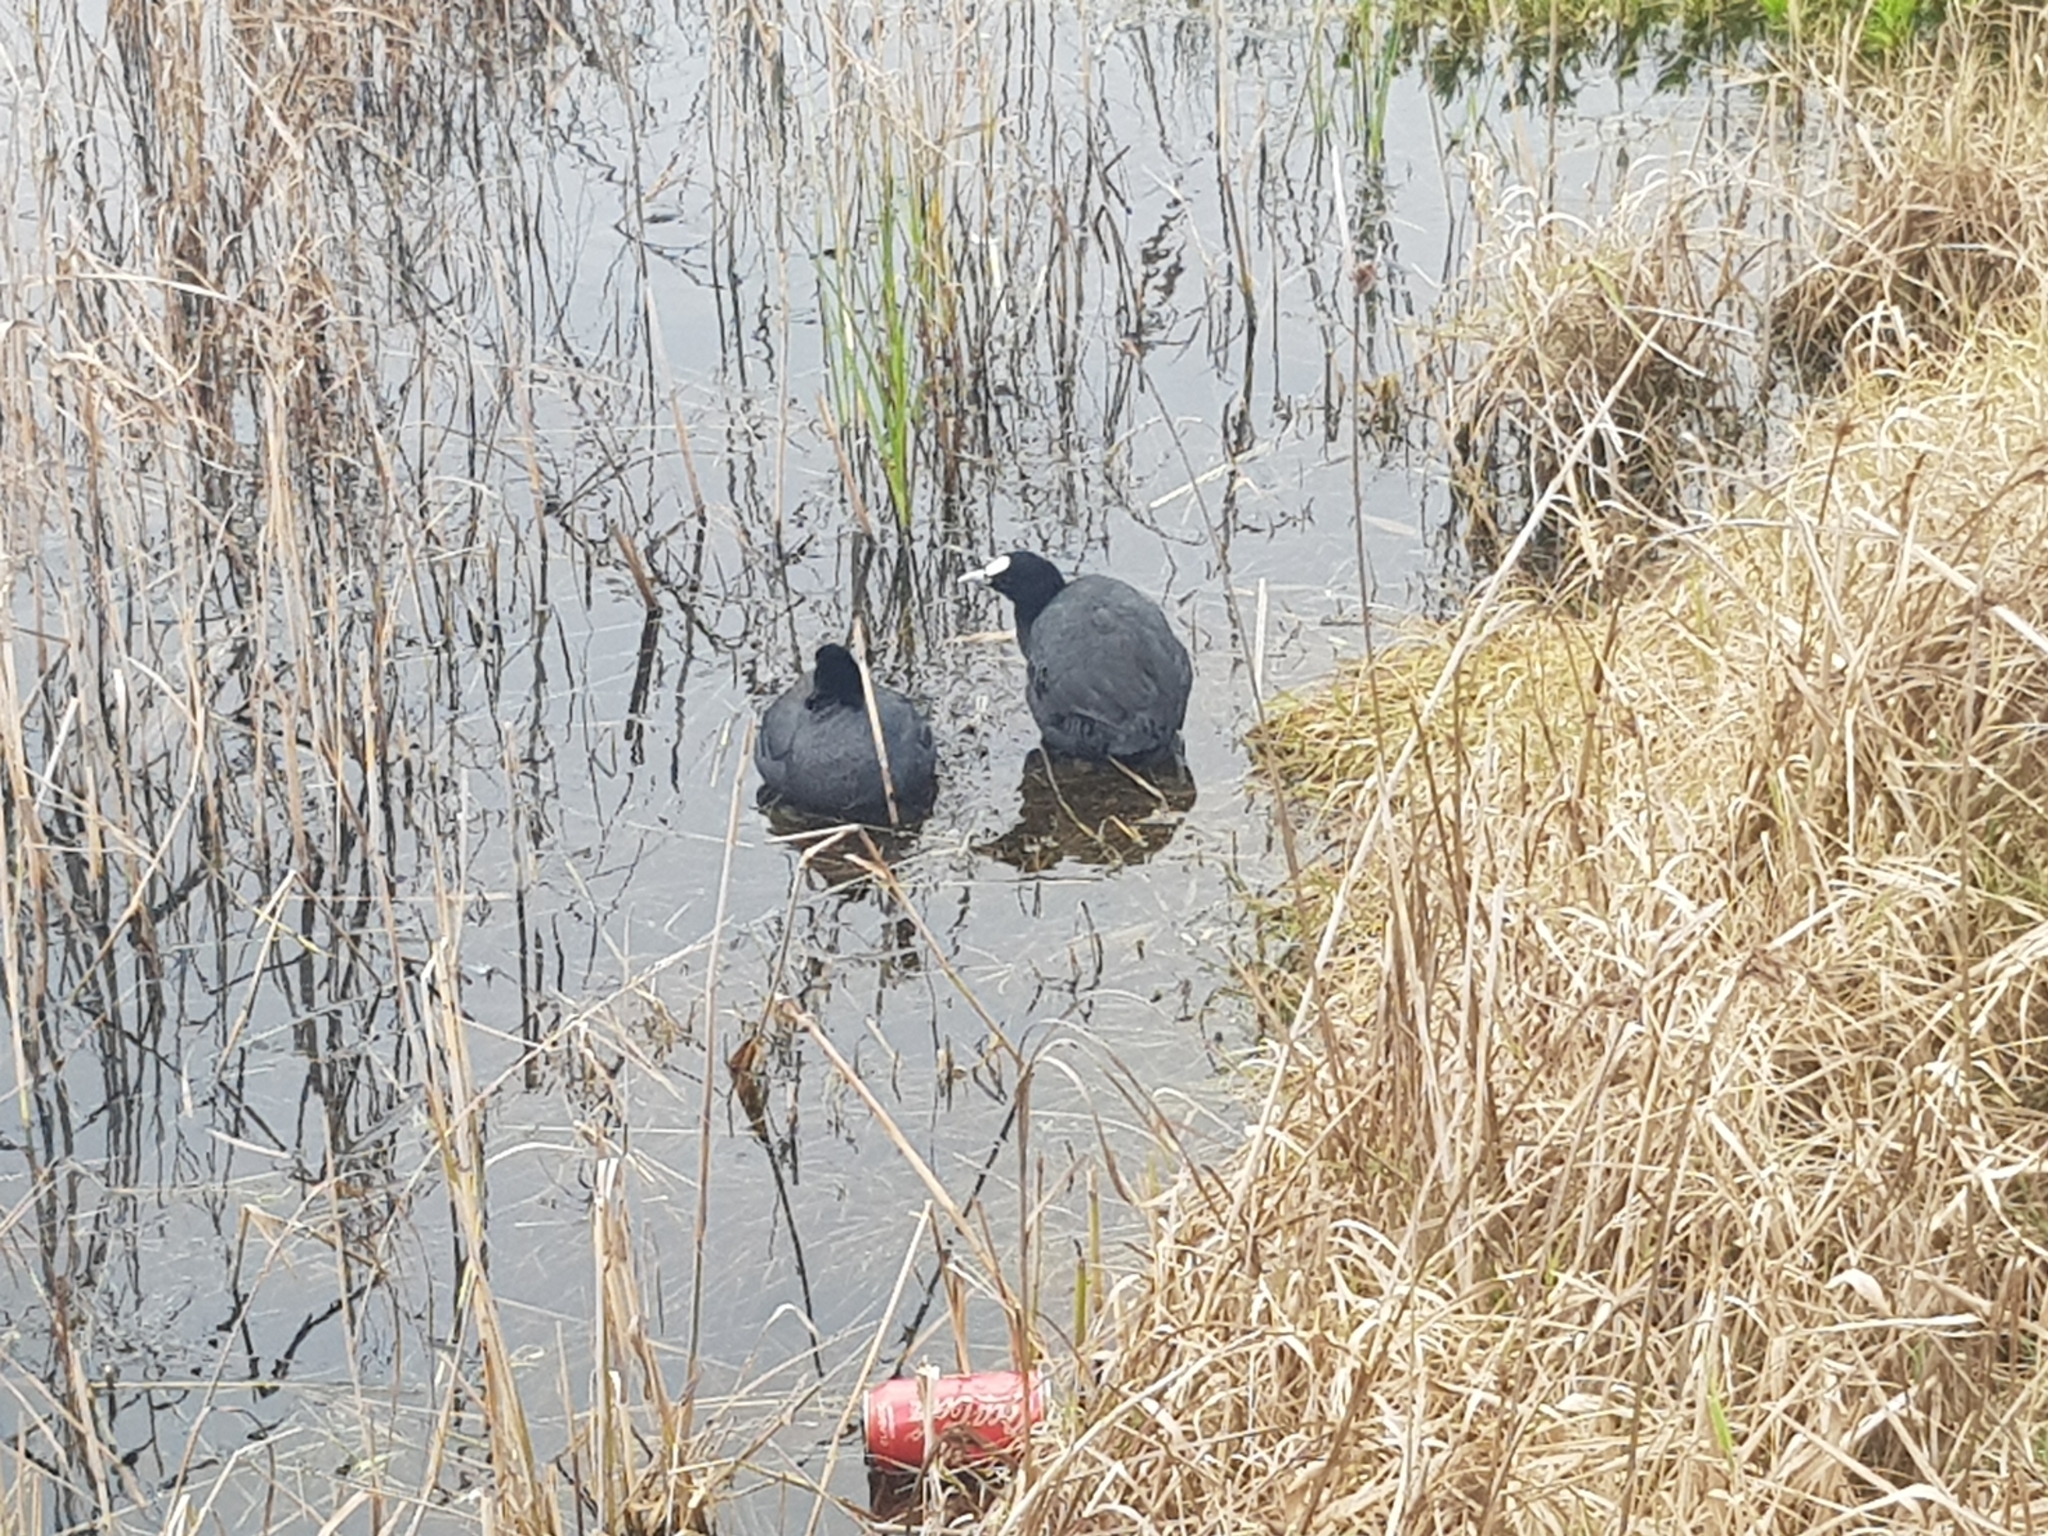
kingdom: Animalia
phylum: Chordata
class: Aves
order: Gruiformes
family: Rallidae
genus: Fulica
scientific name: Fulica atra
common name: Eurasian coot
